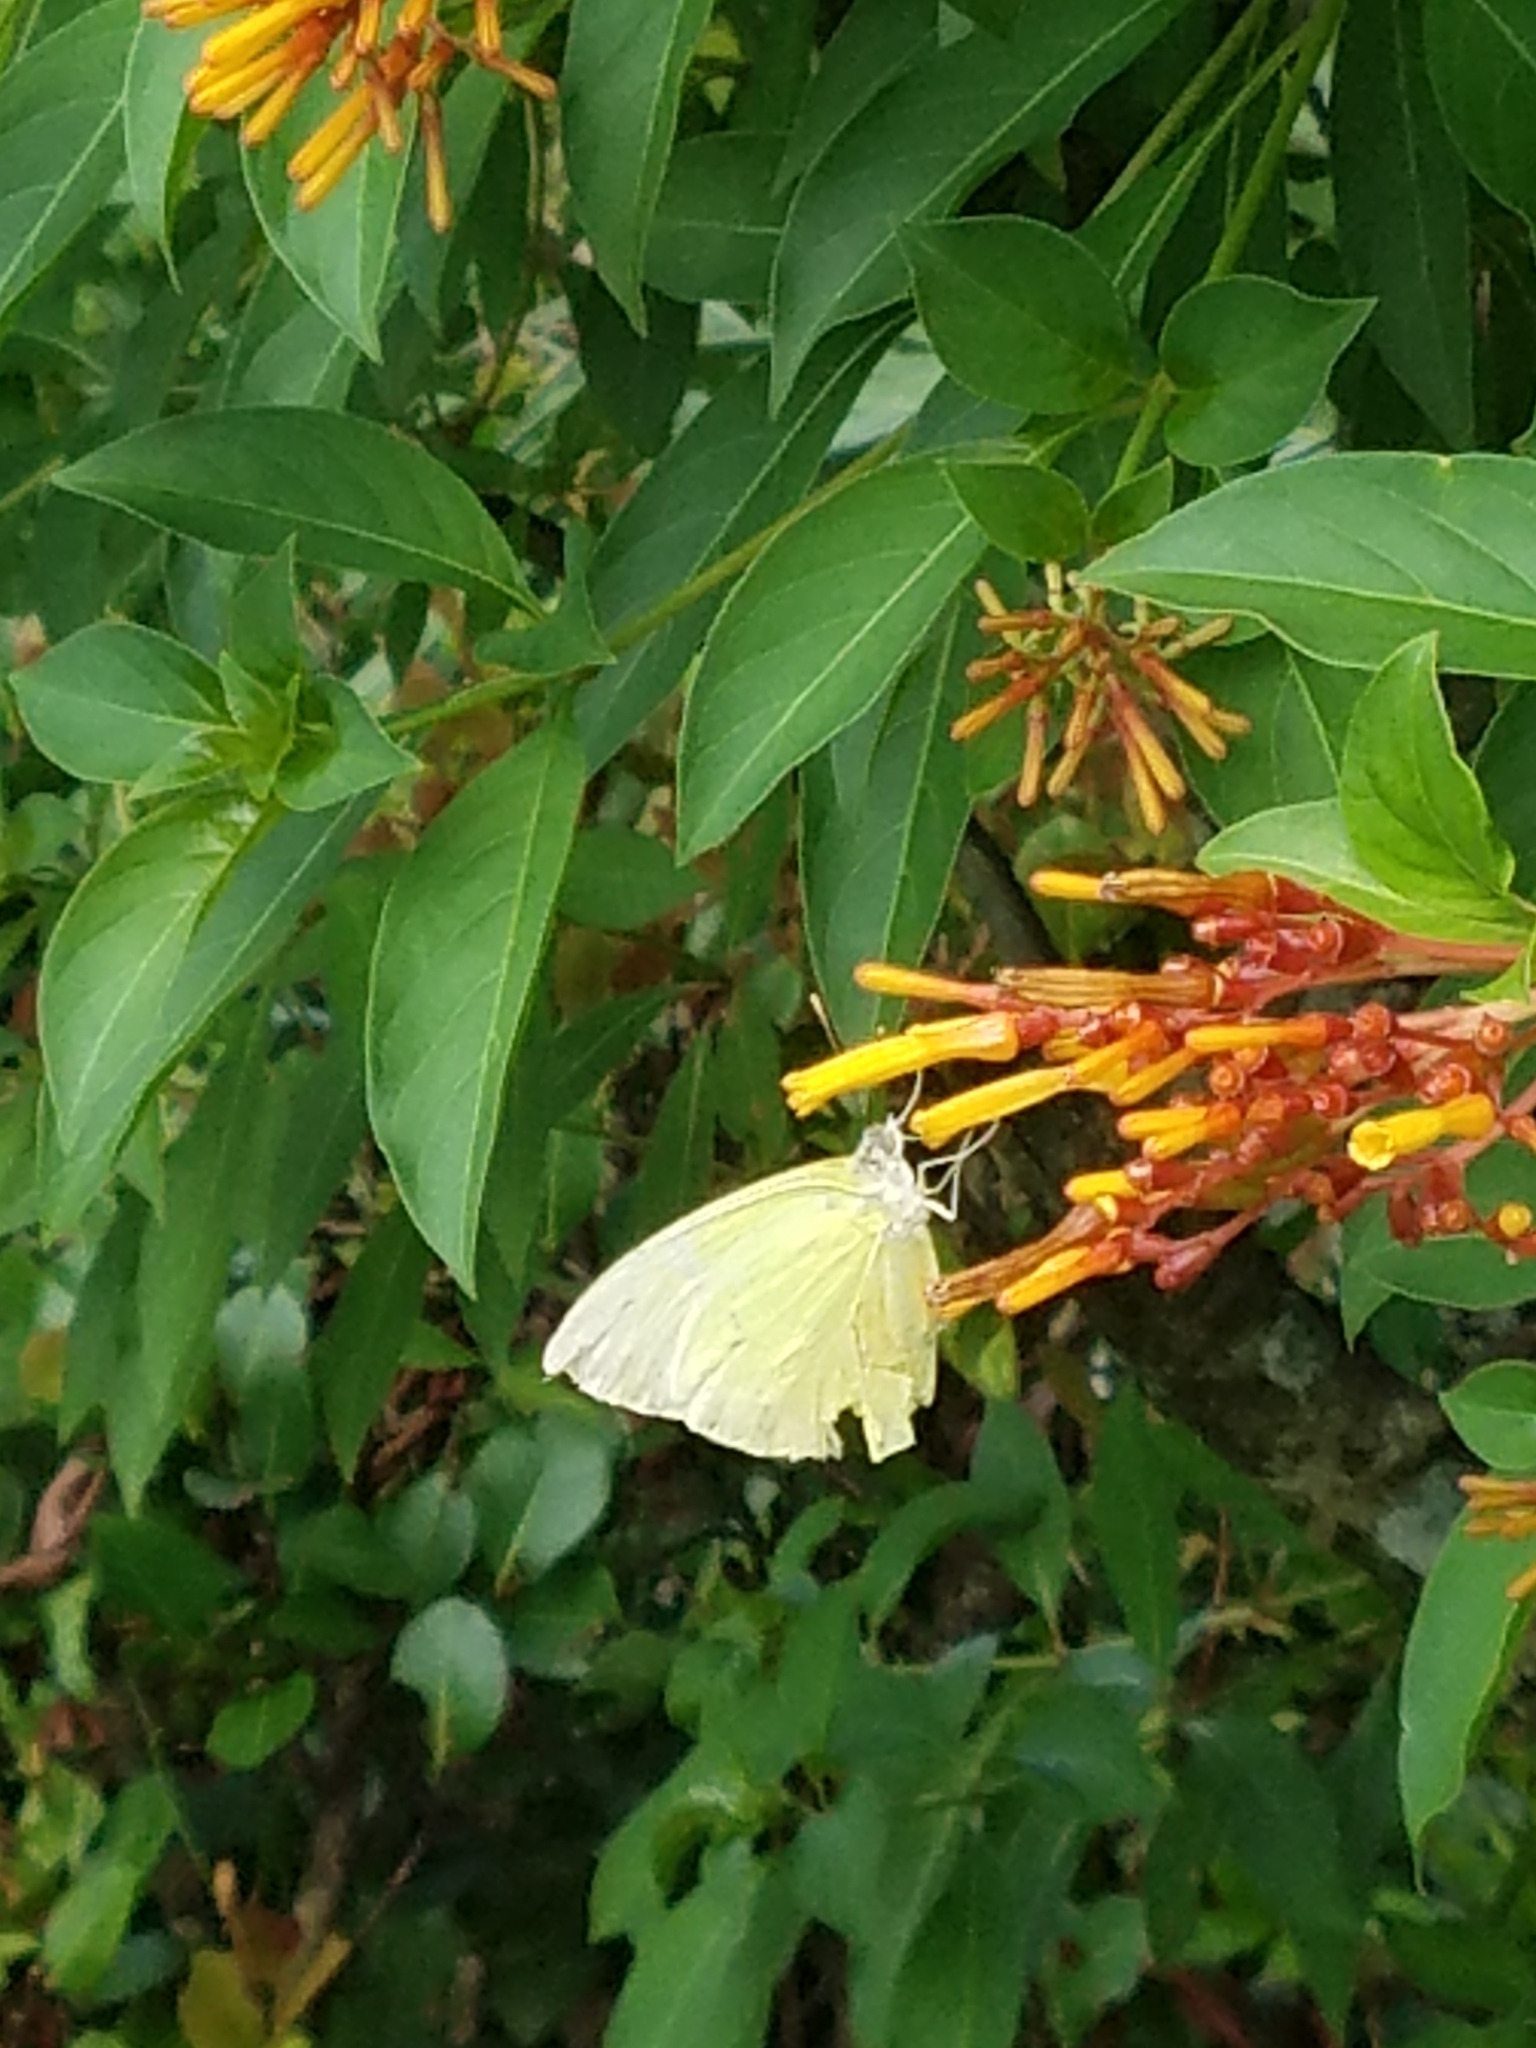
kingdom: Animalia
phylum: Arthropoda
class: Insecta
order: Lepidoptera
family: Pieridae
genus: Aphrissa
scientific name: Aphrissa statira
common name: Statira sulphur
